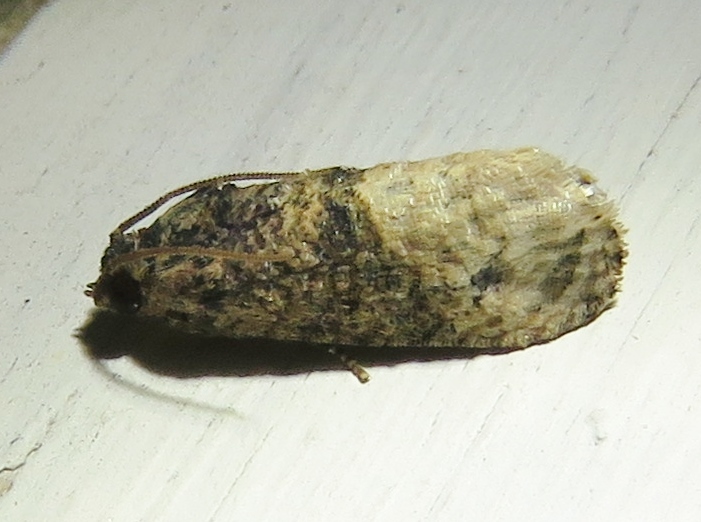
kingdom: Animalia
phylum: Arthropoda
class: Insecta
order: Lepidoptera
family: Tortricidae
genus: Ecdytolopha
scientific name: Ecdytolopha mana
